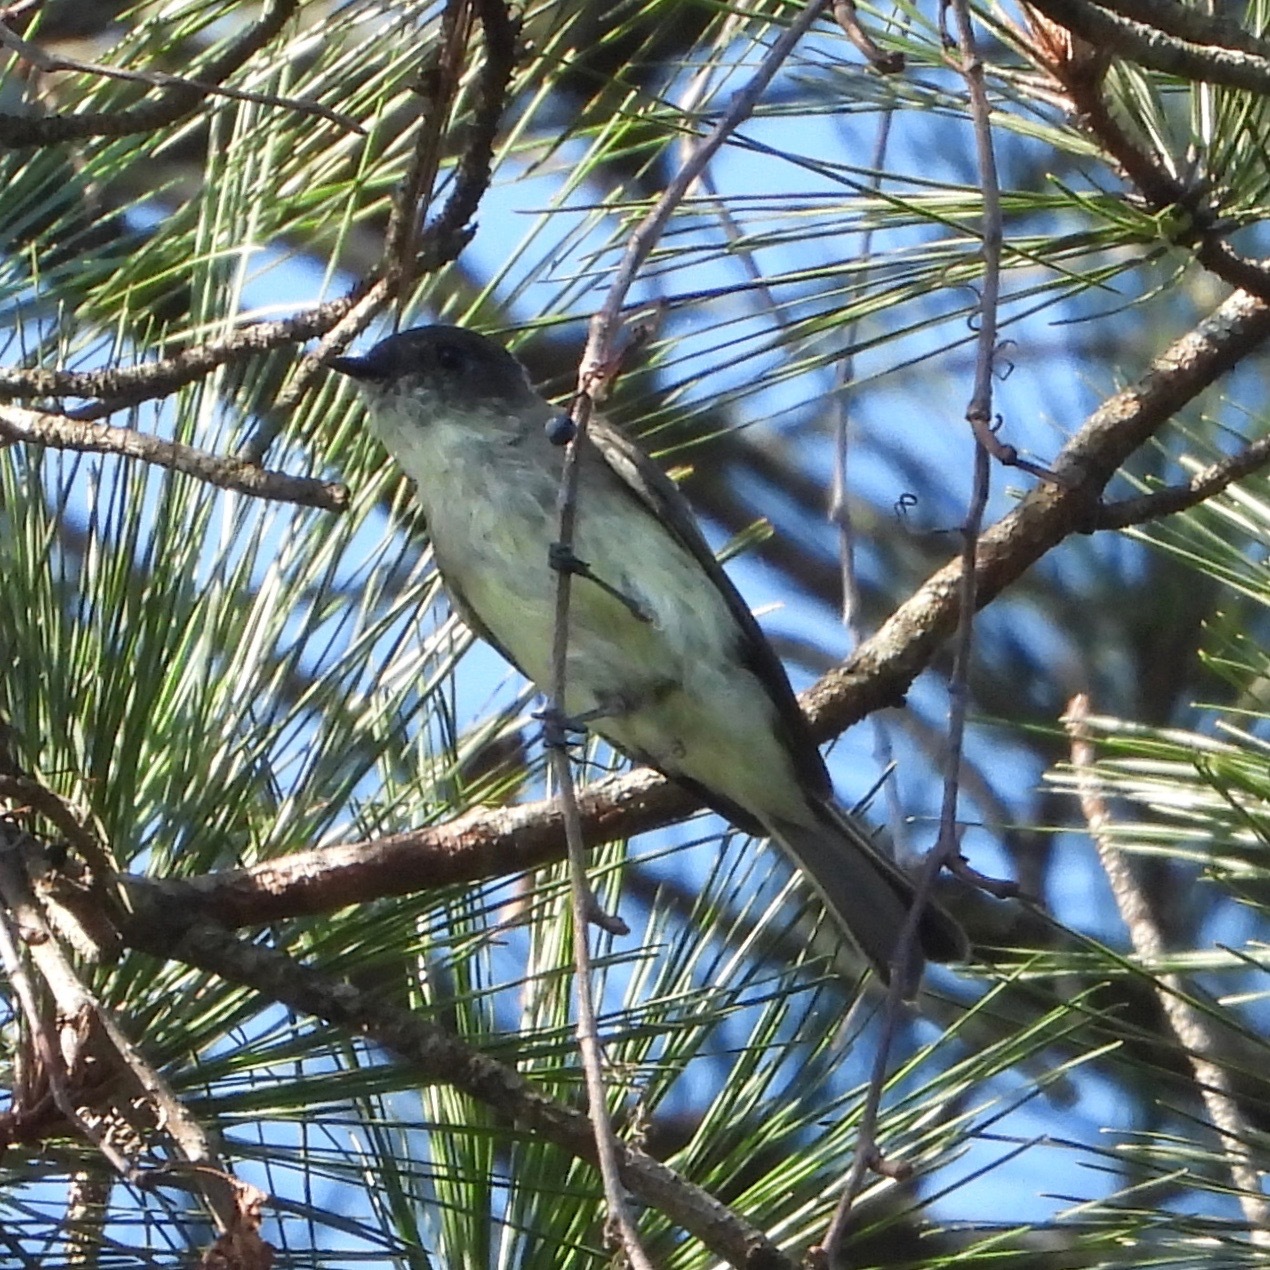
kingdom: Animalia
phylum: Chordata
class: Aves
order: Passeriformes
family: Tyrannidae
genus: Sayornis
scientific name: Sayornis phoebe
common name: Eastern phoebe
